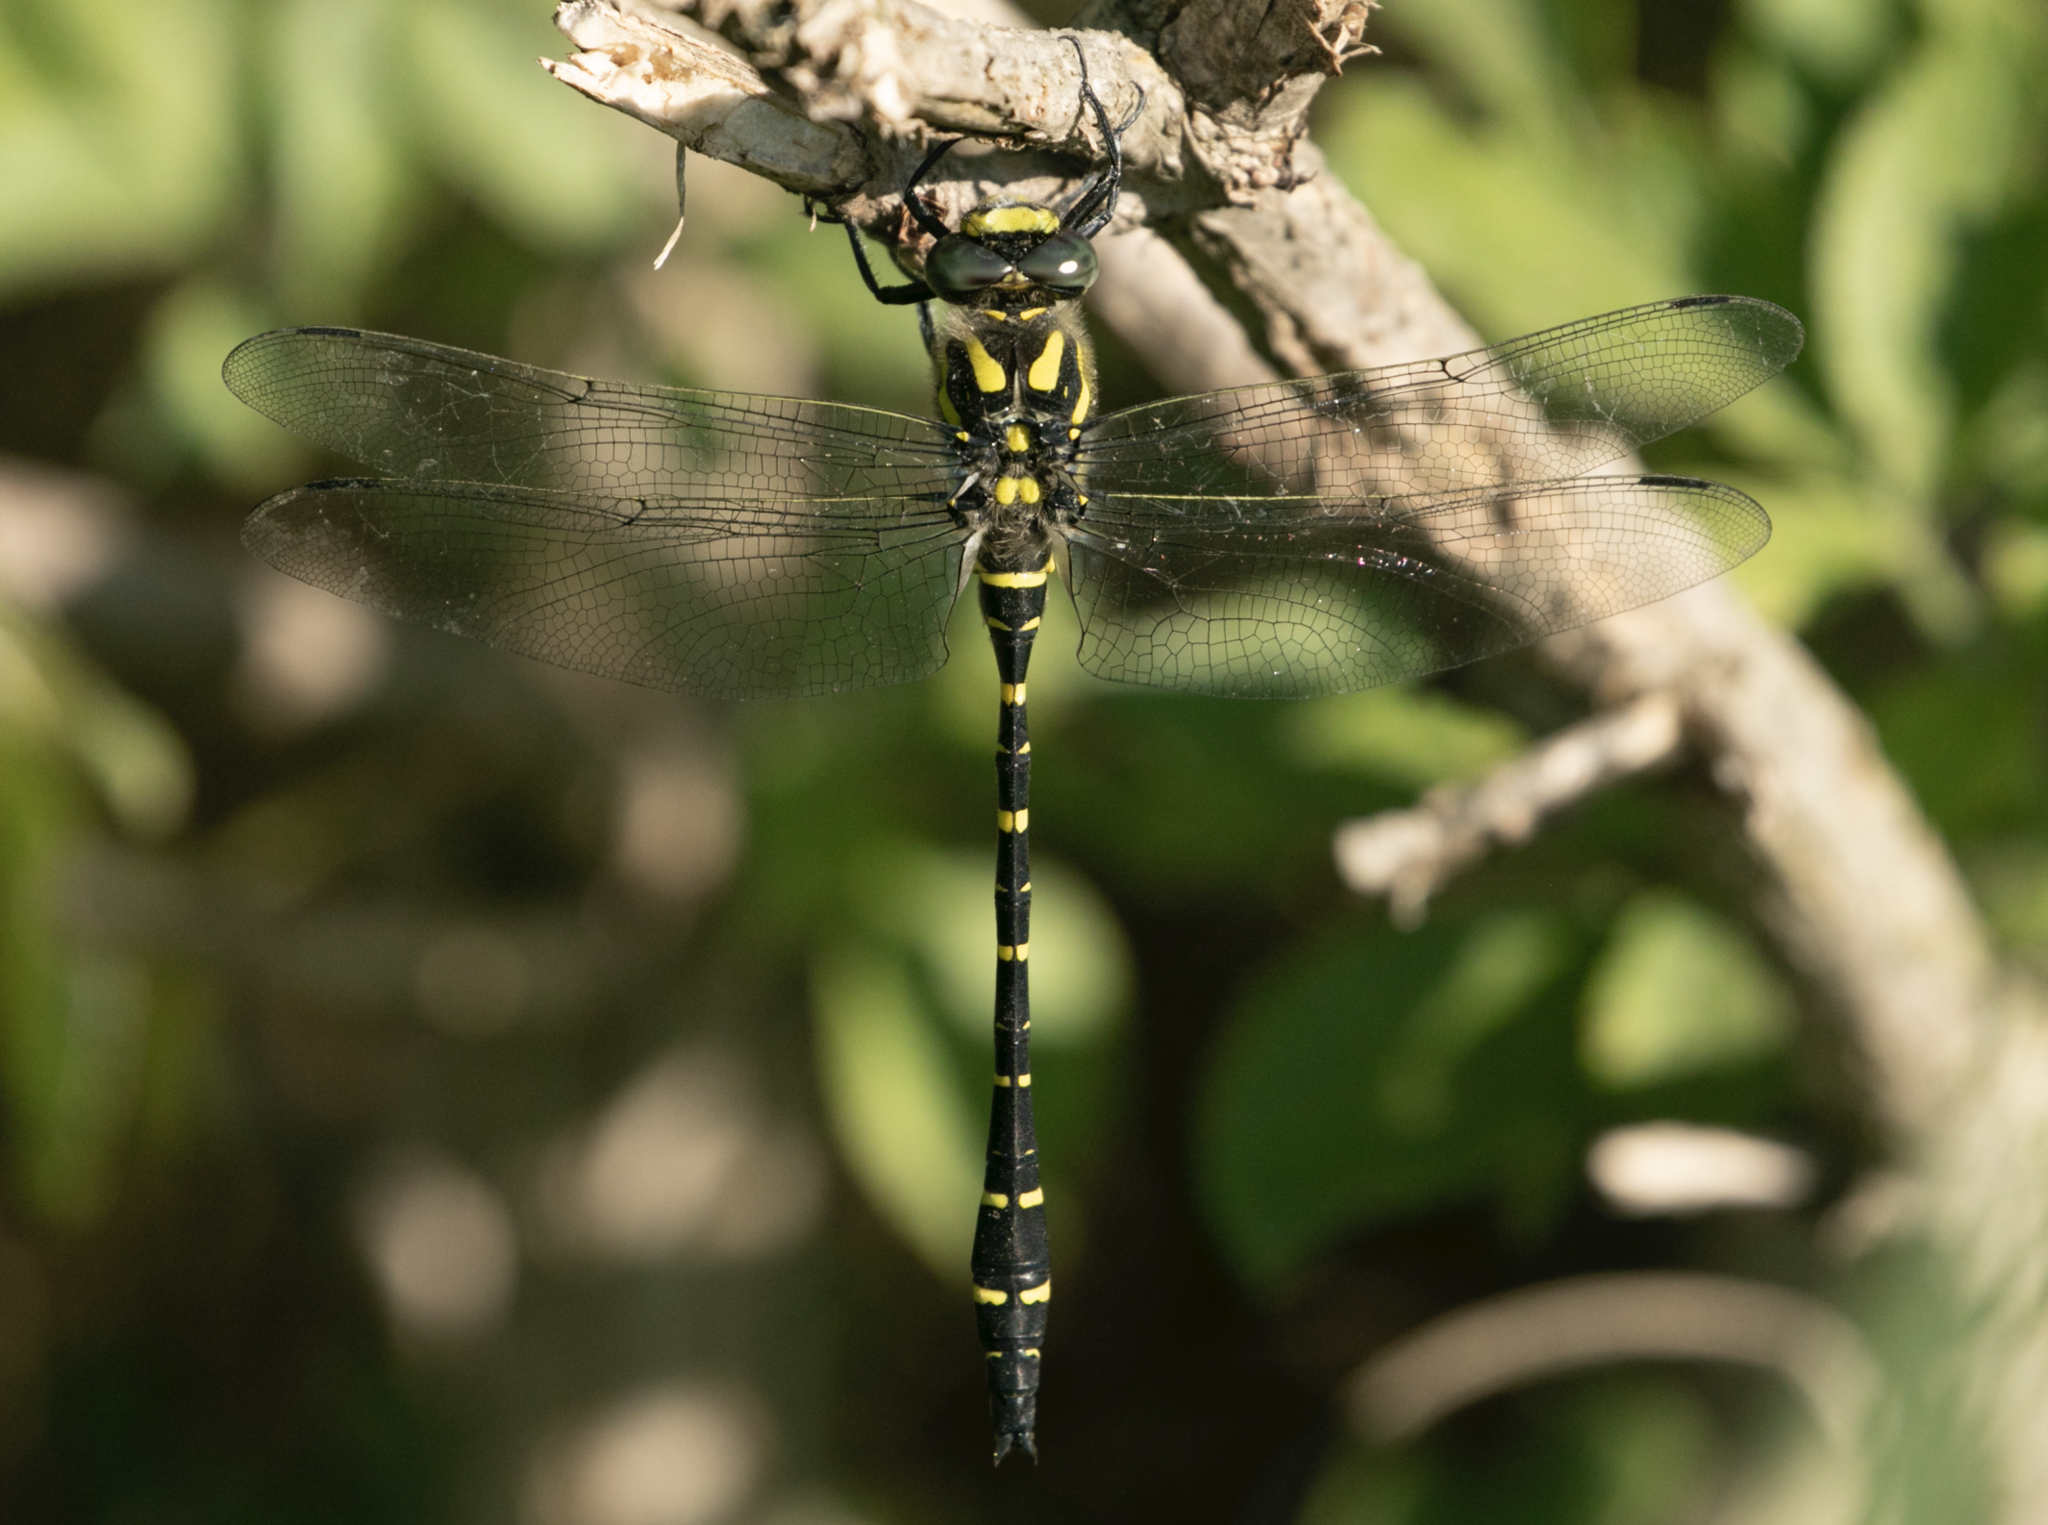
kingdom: Animalia
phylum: Arthropoda
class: Insecta
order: Odonata
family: Cordulegastridae
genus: Cordulegaster
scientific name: Cordulegaster boltonii
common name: Golden-ringed dragonfly
